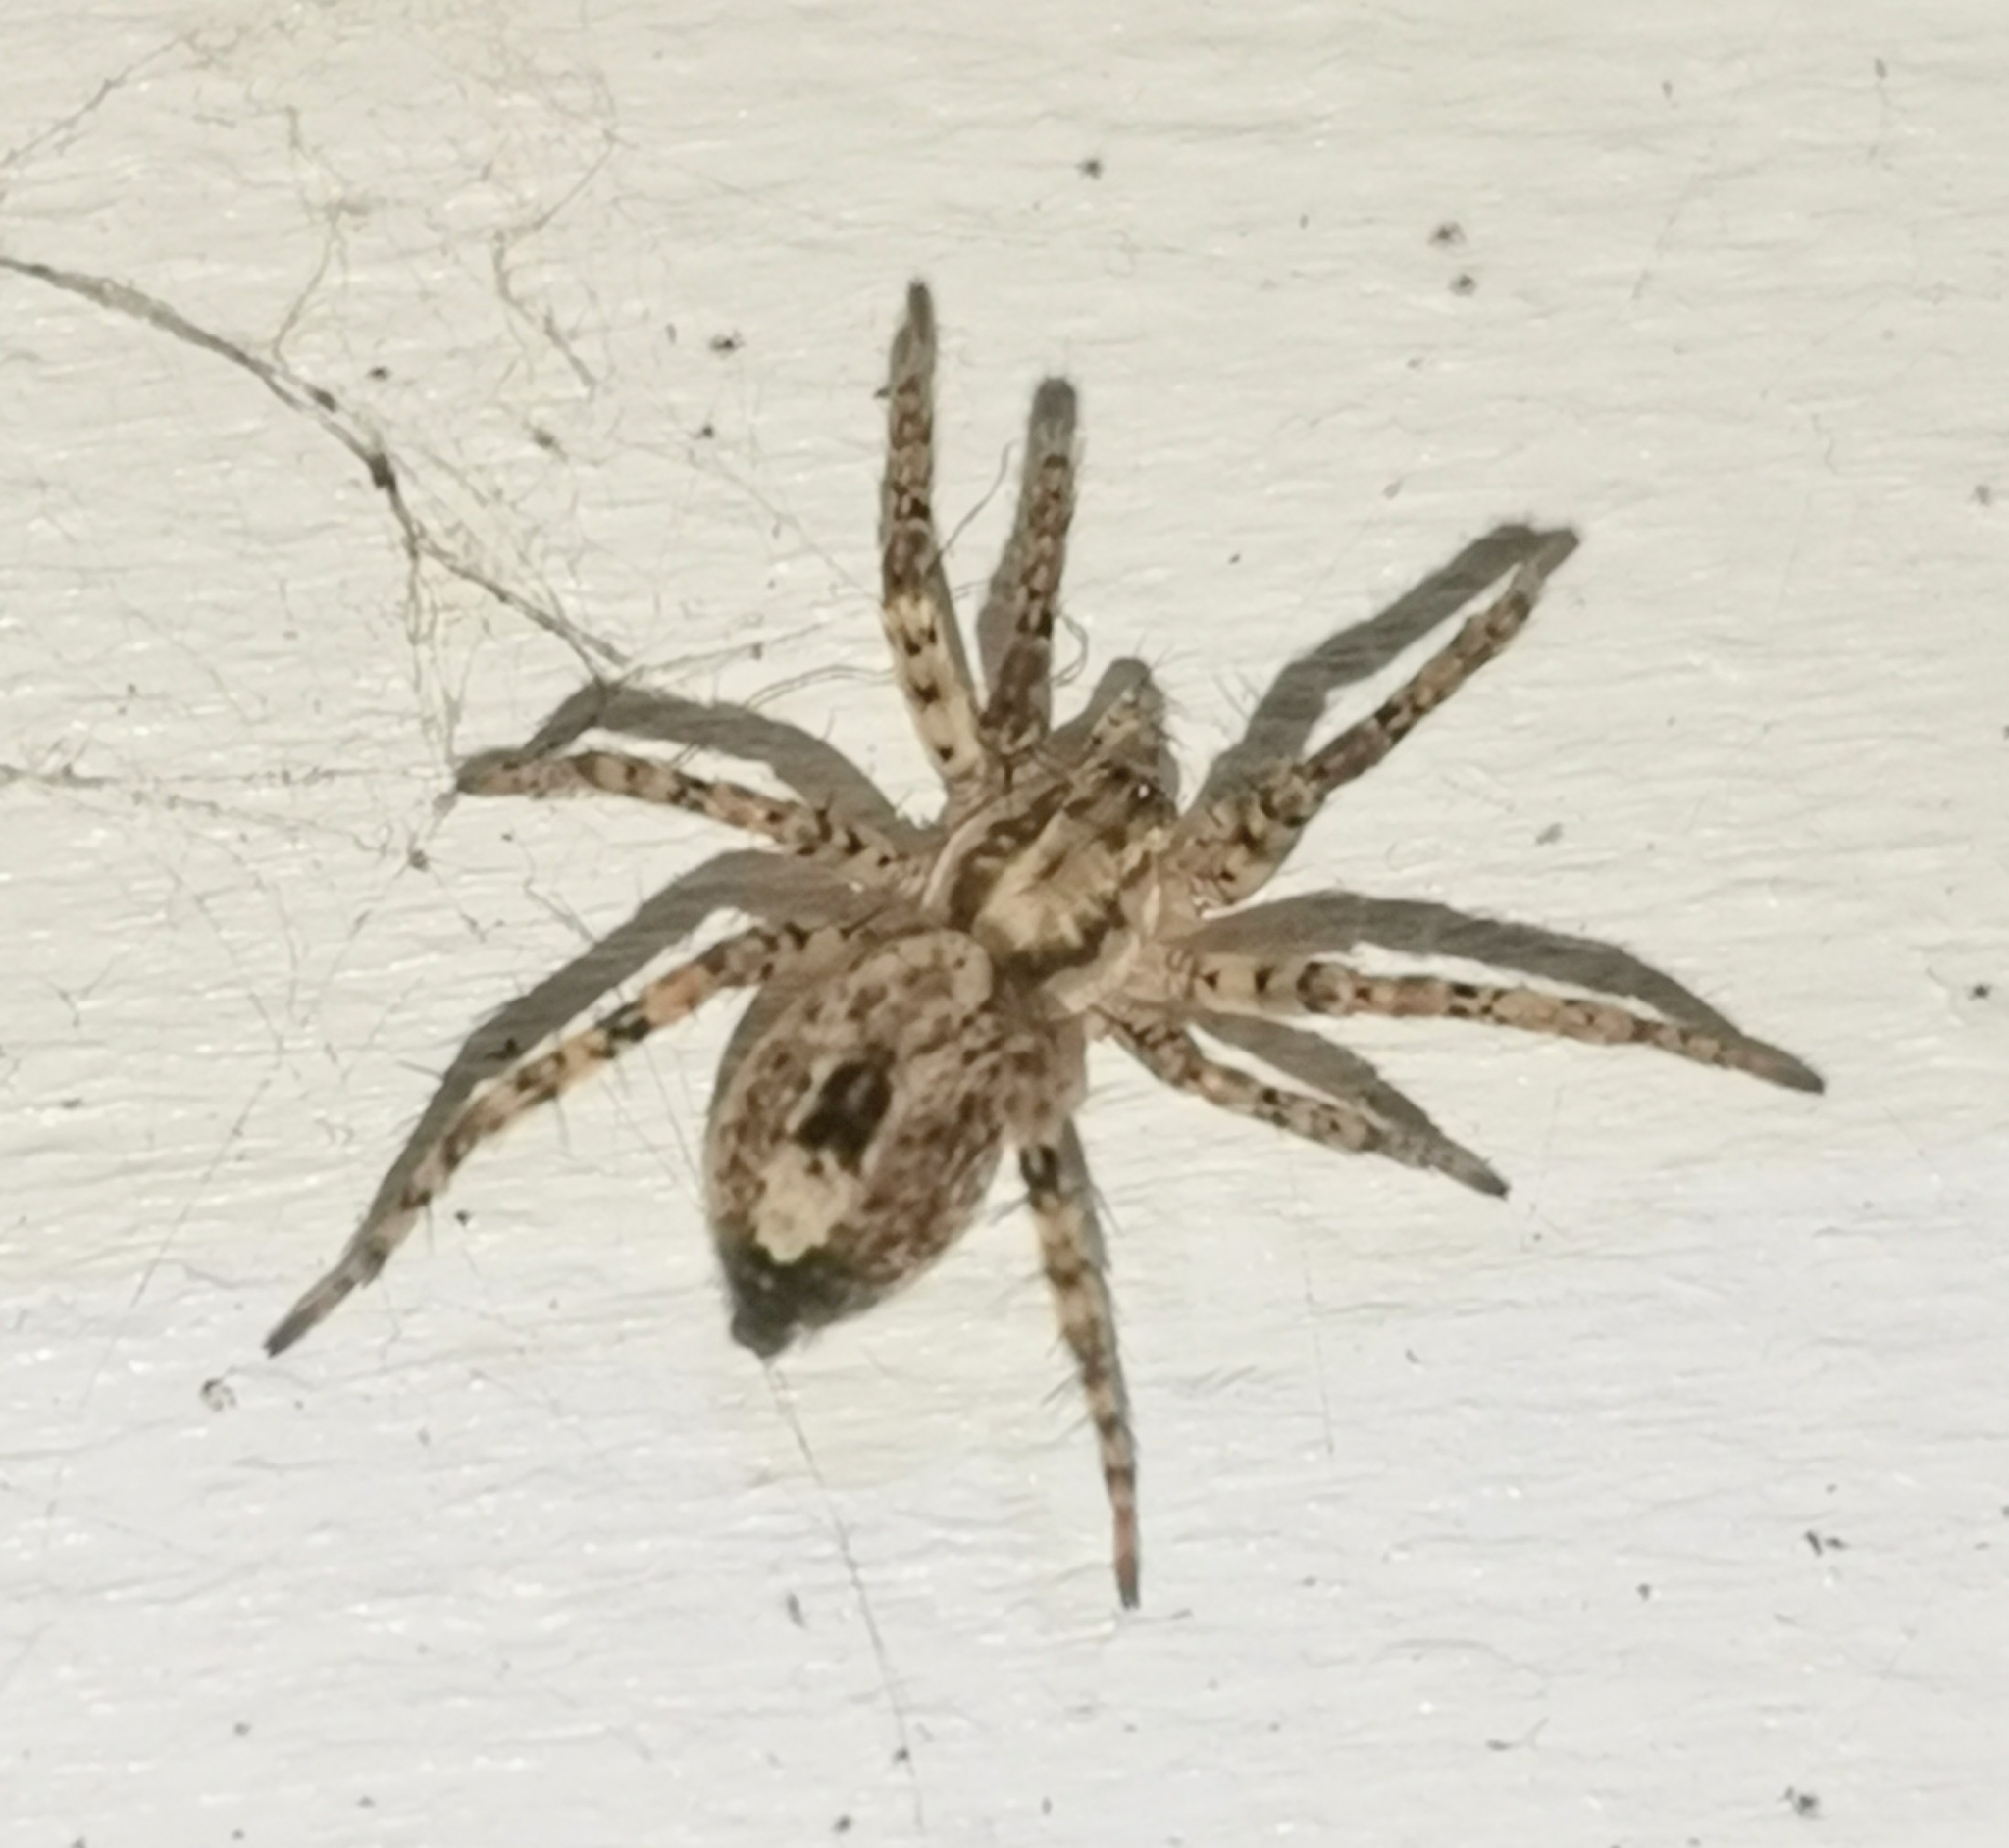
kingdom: Animalia
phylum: Arthropoda
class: Arachnida
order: Araneae
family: Anyphaenidae
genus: Anyphaena
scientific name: Anyphaena accentuata
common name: Buzzing spider
